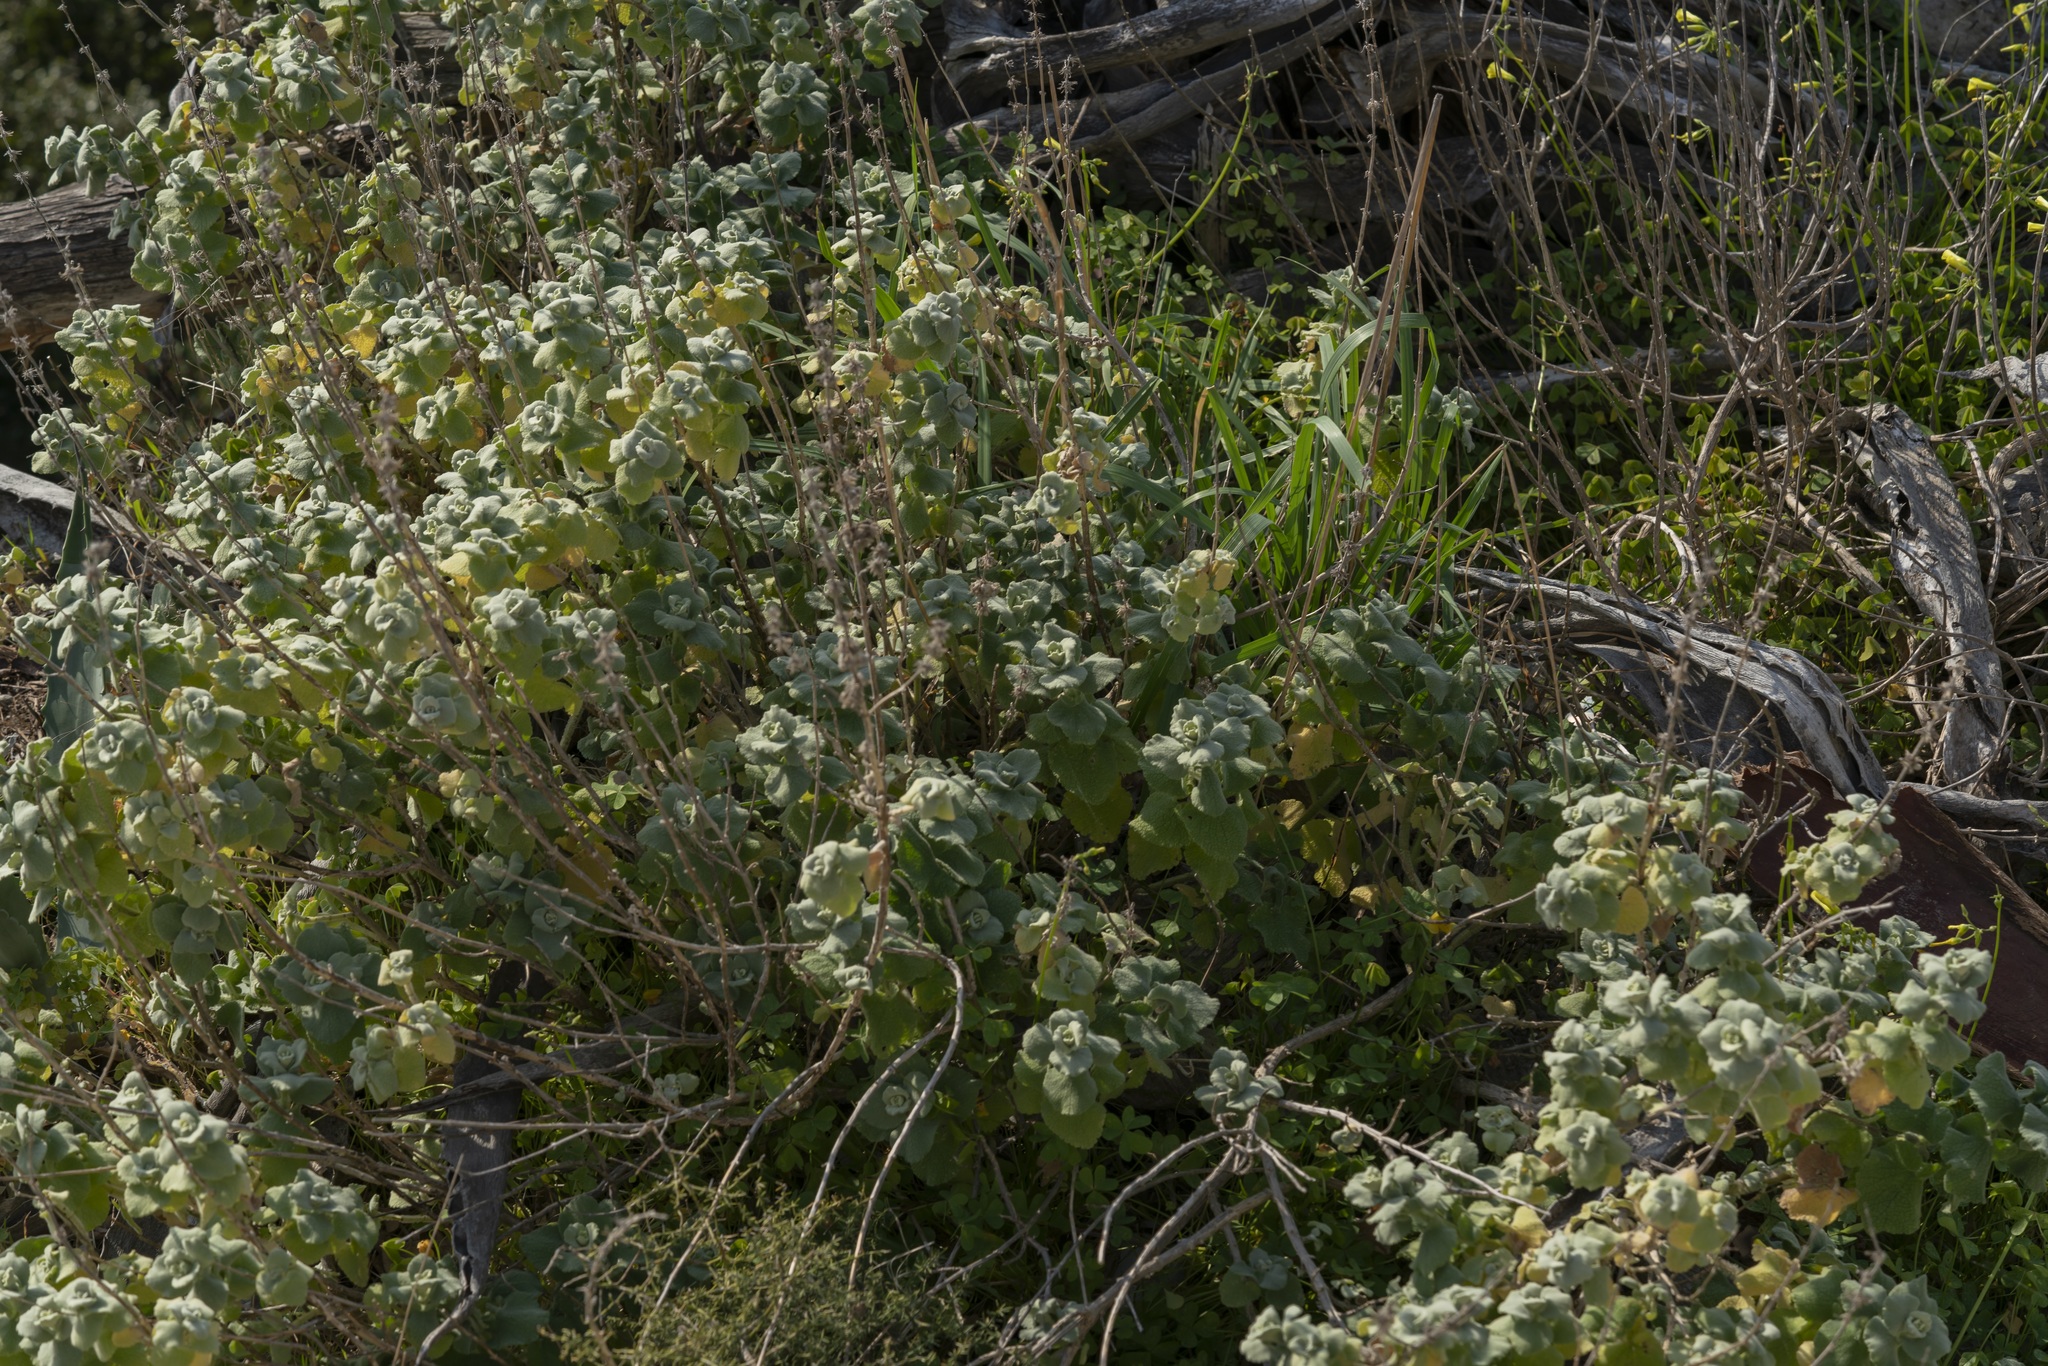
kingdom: Plantae
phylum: Tracheophyta
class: Magnoliopsida
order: Lamiales
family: Lamiaceae
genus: Pseudodictamnus
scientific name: Pseudodictamnus acetabulosus
